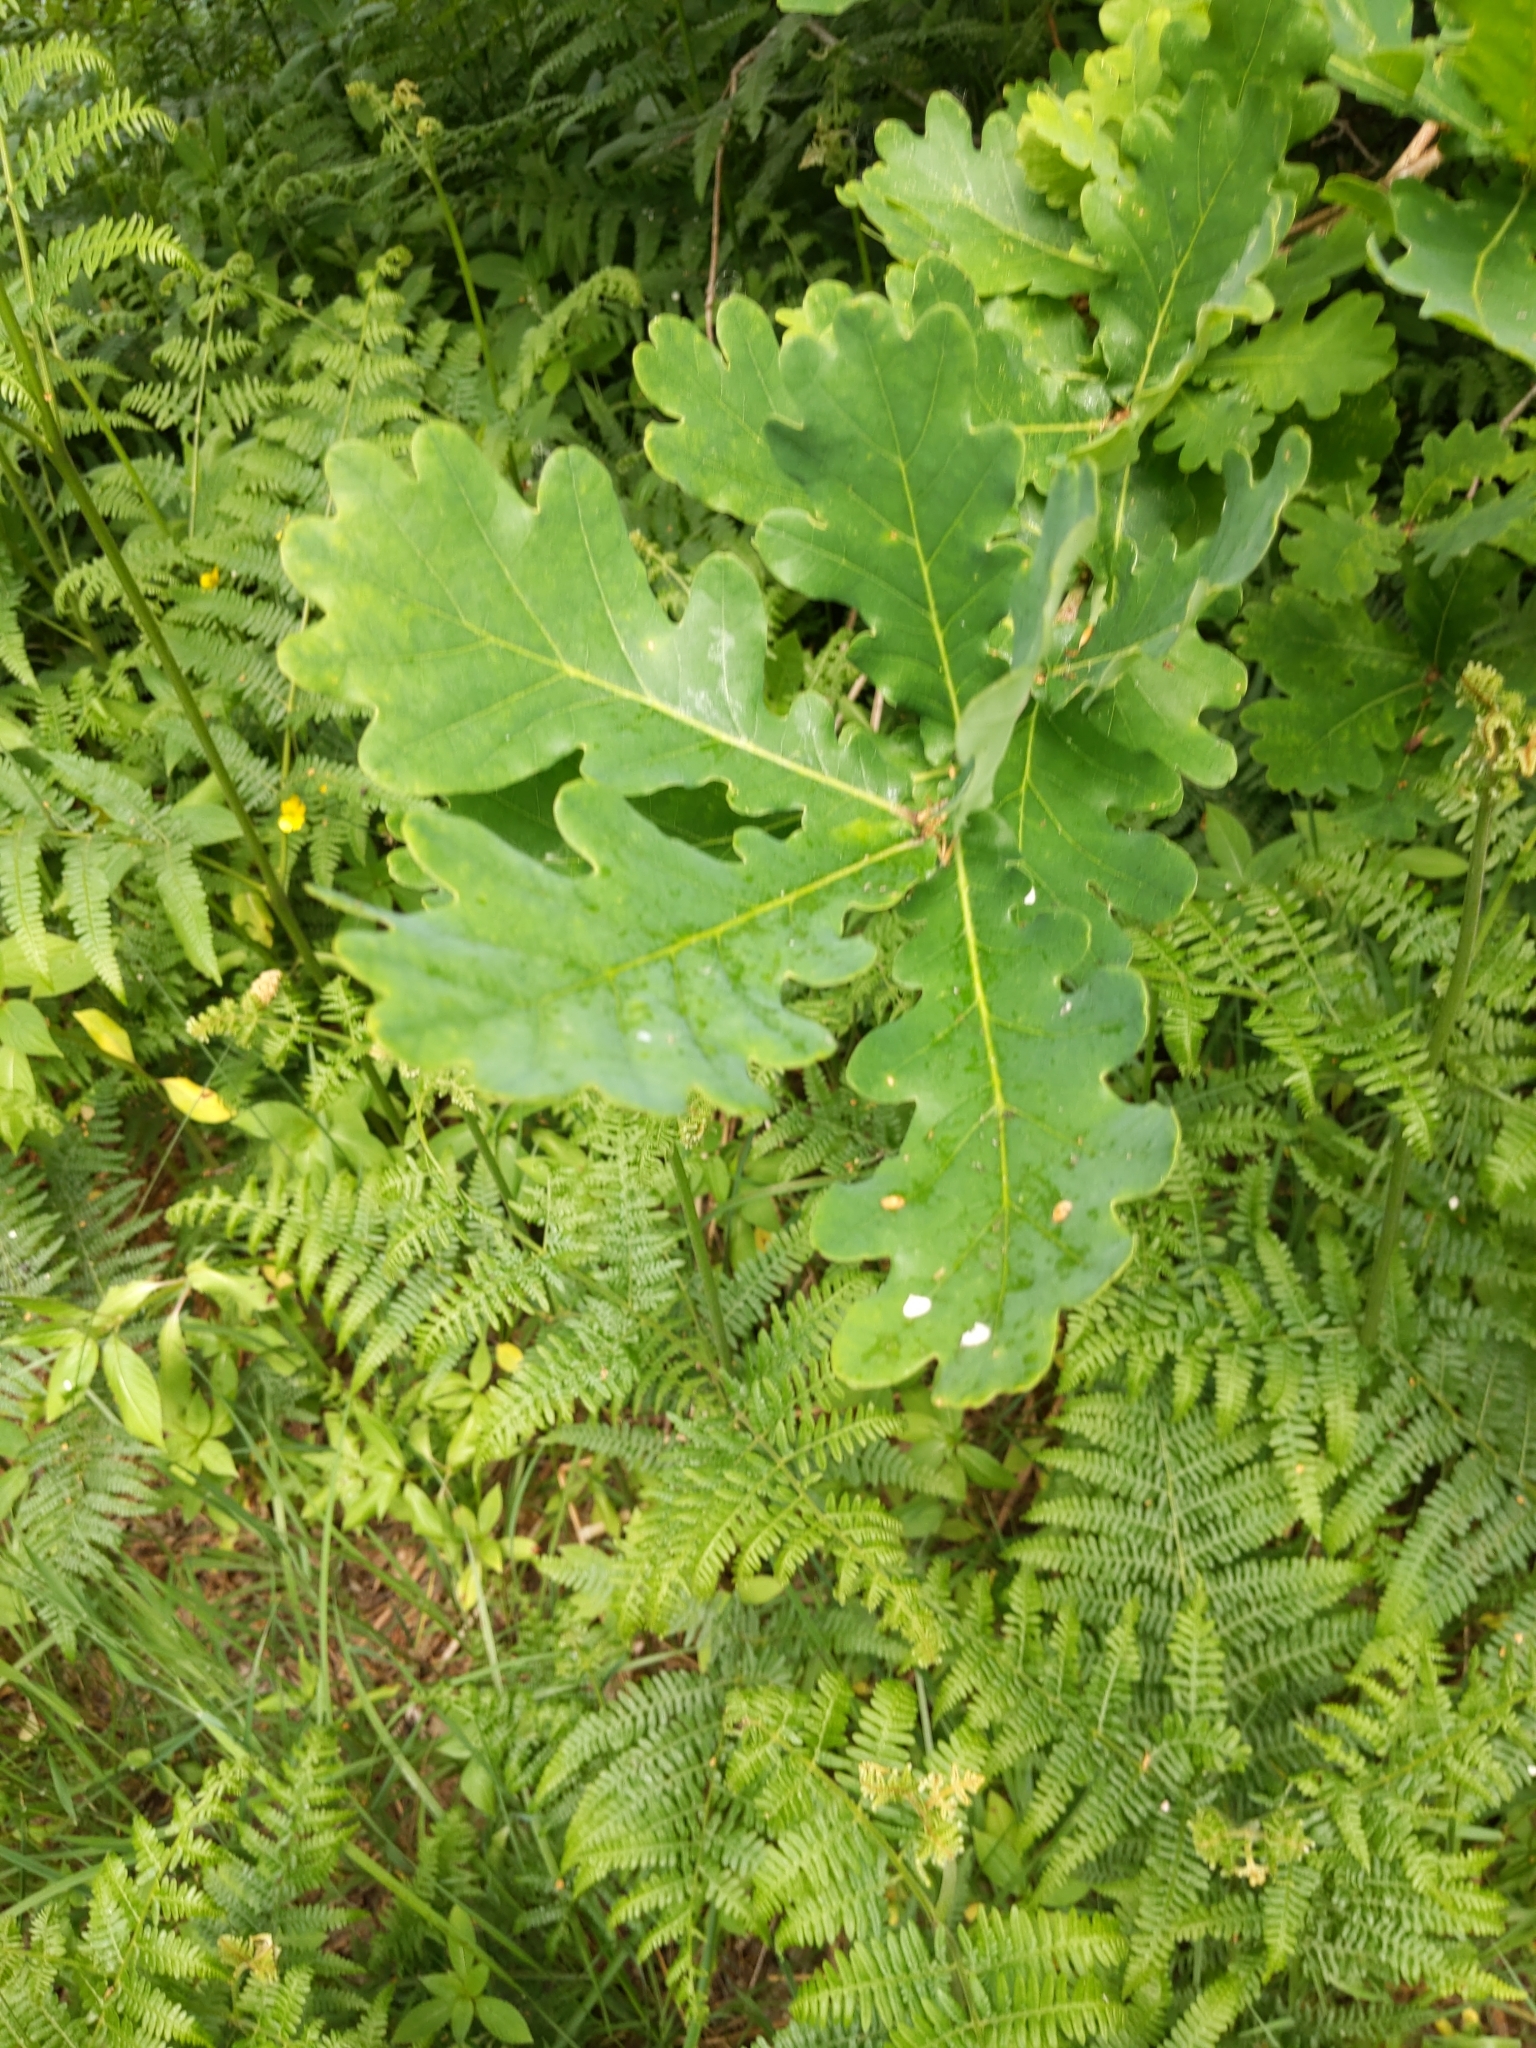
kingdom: Plantae
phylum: Tracheophyta
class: Magnoliopsida
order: Fagales
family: Fagaceae
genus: Quercus
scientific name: Quercus robur
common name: Pedunculate oak
